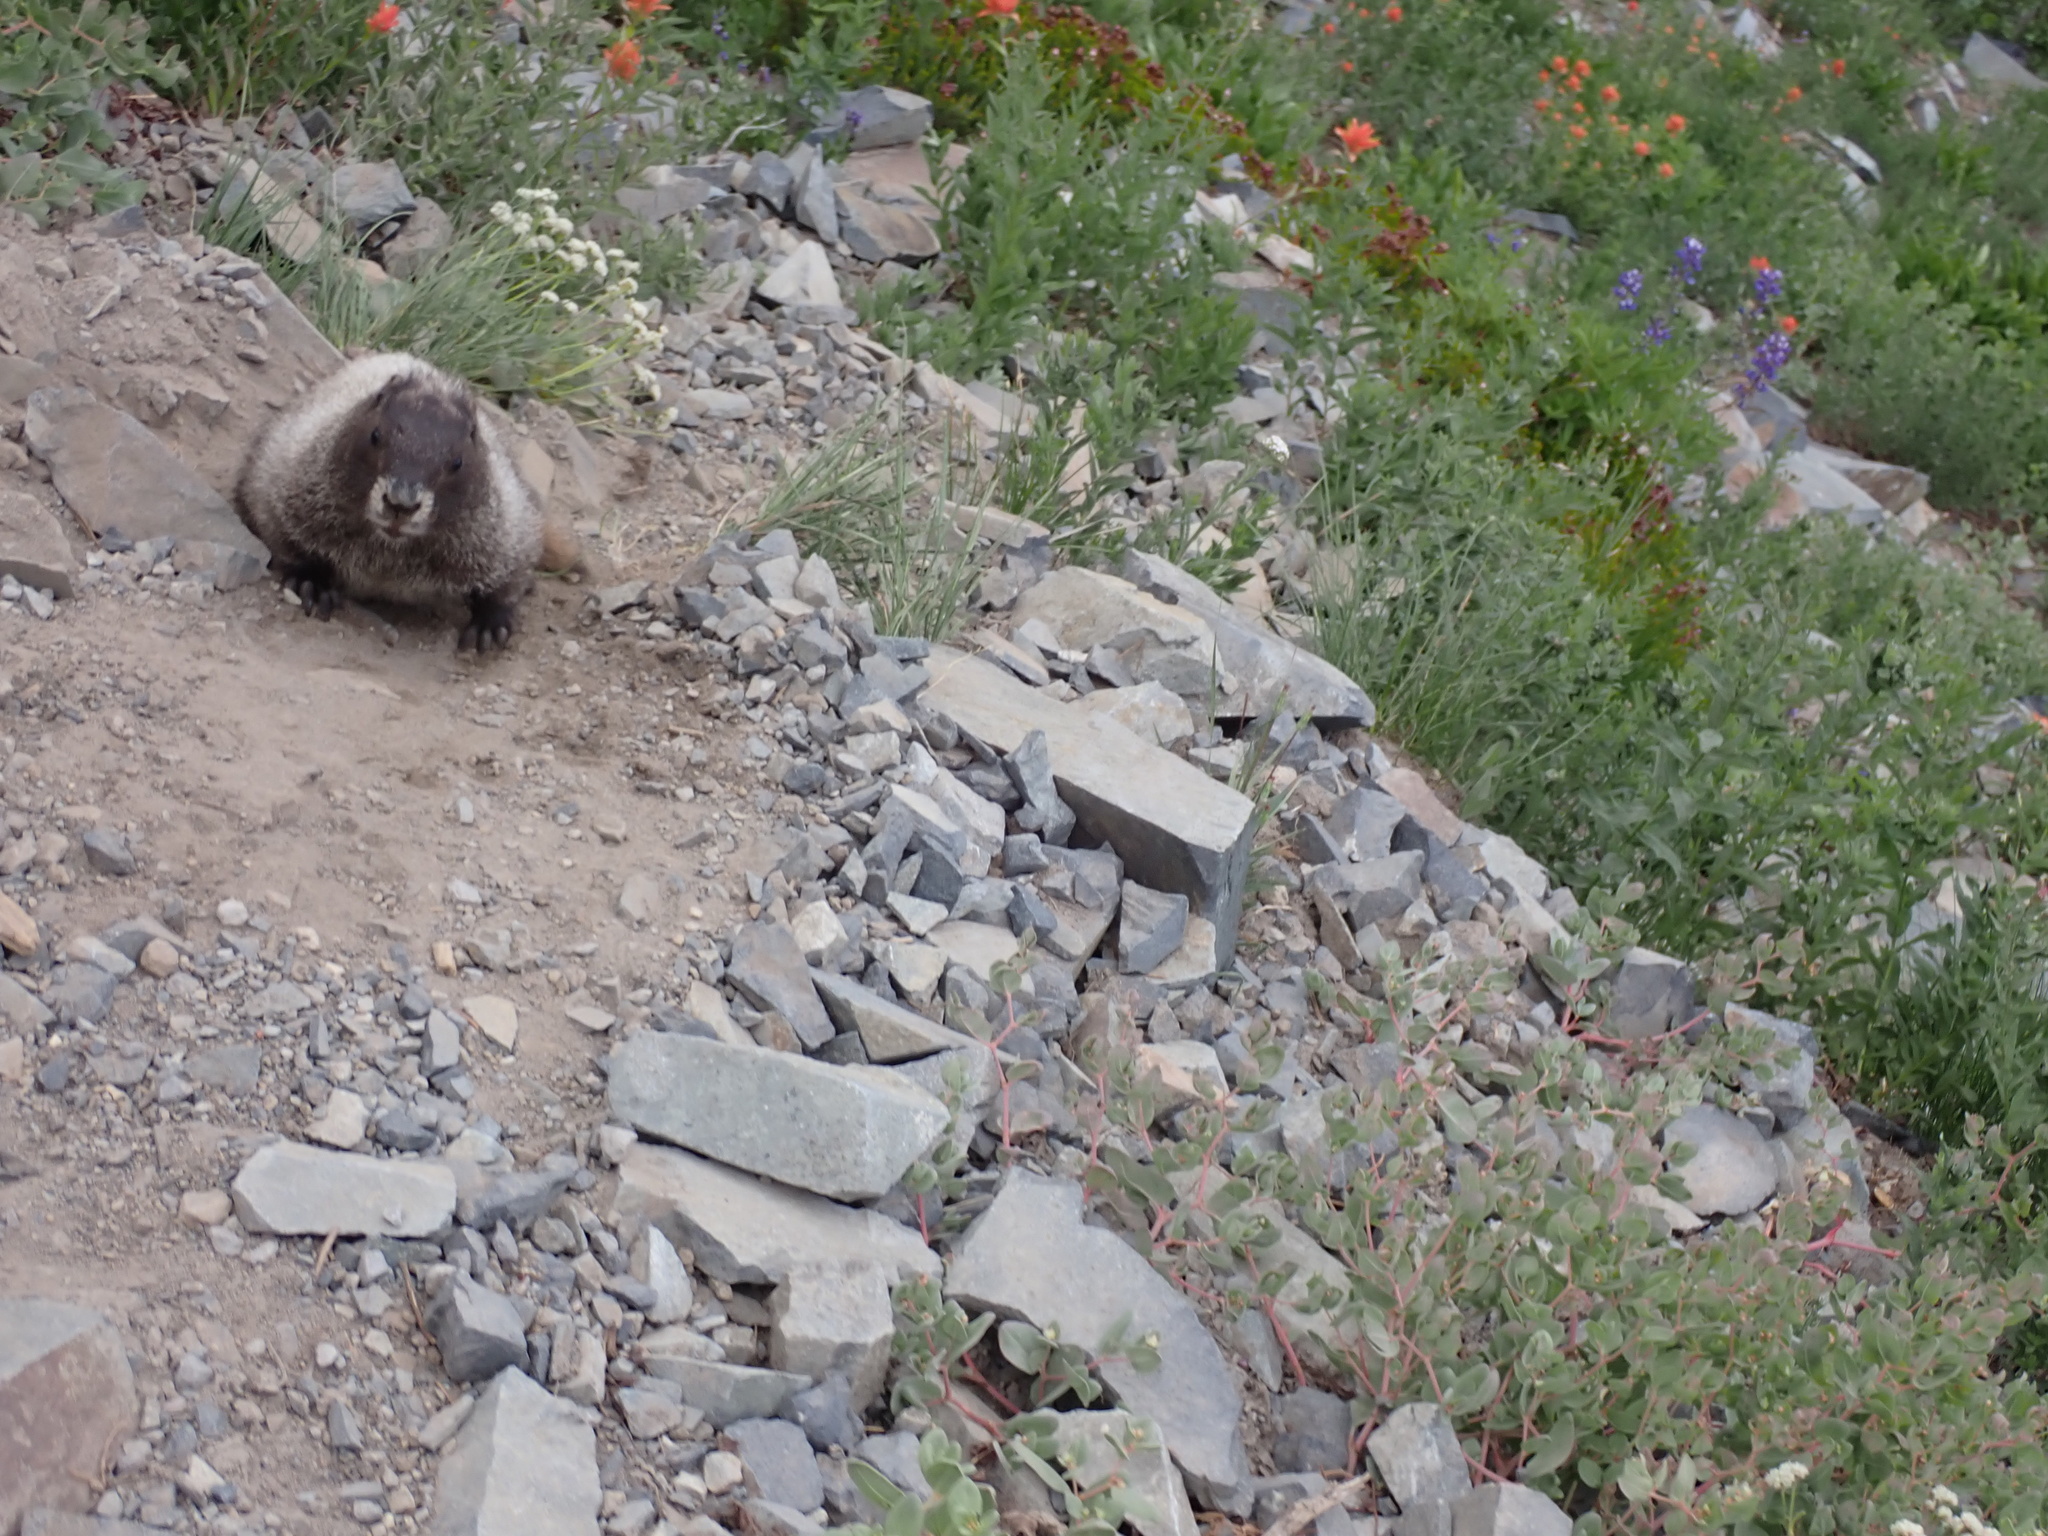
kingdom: Animalia
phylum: Chordata
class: Mammalia
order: Rodentia
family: Sciuridae
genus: Marmota
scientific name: Marmota caligata
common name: Hoary marmot
